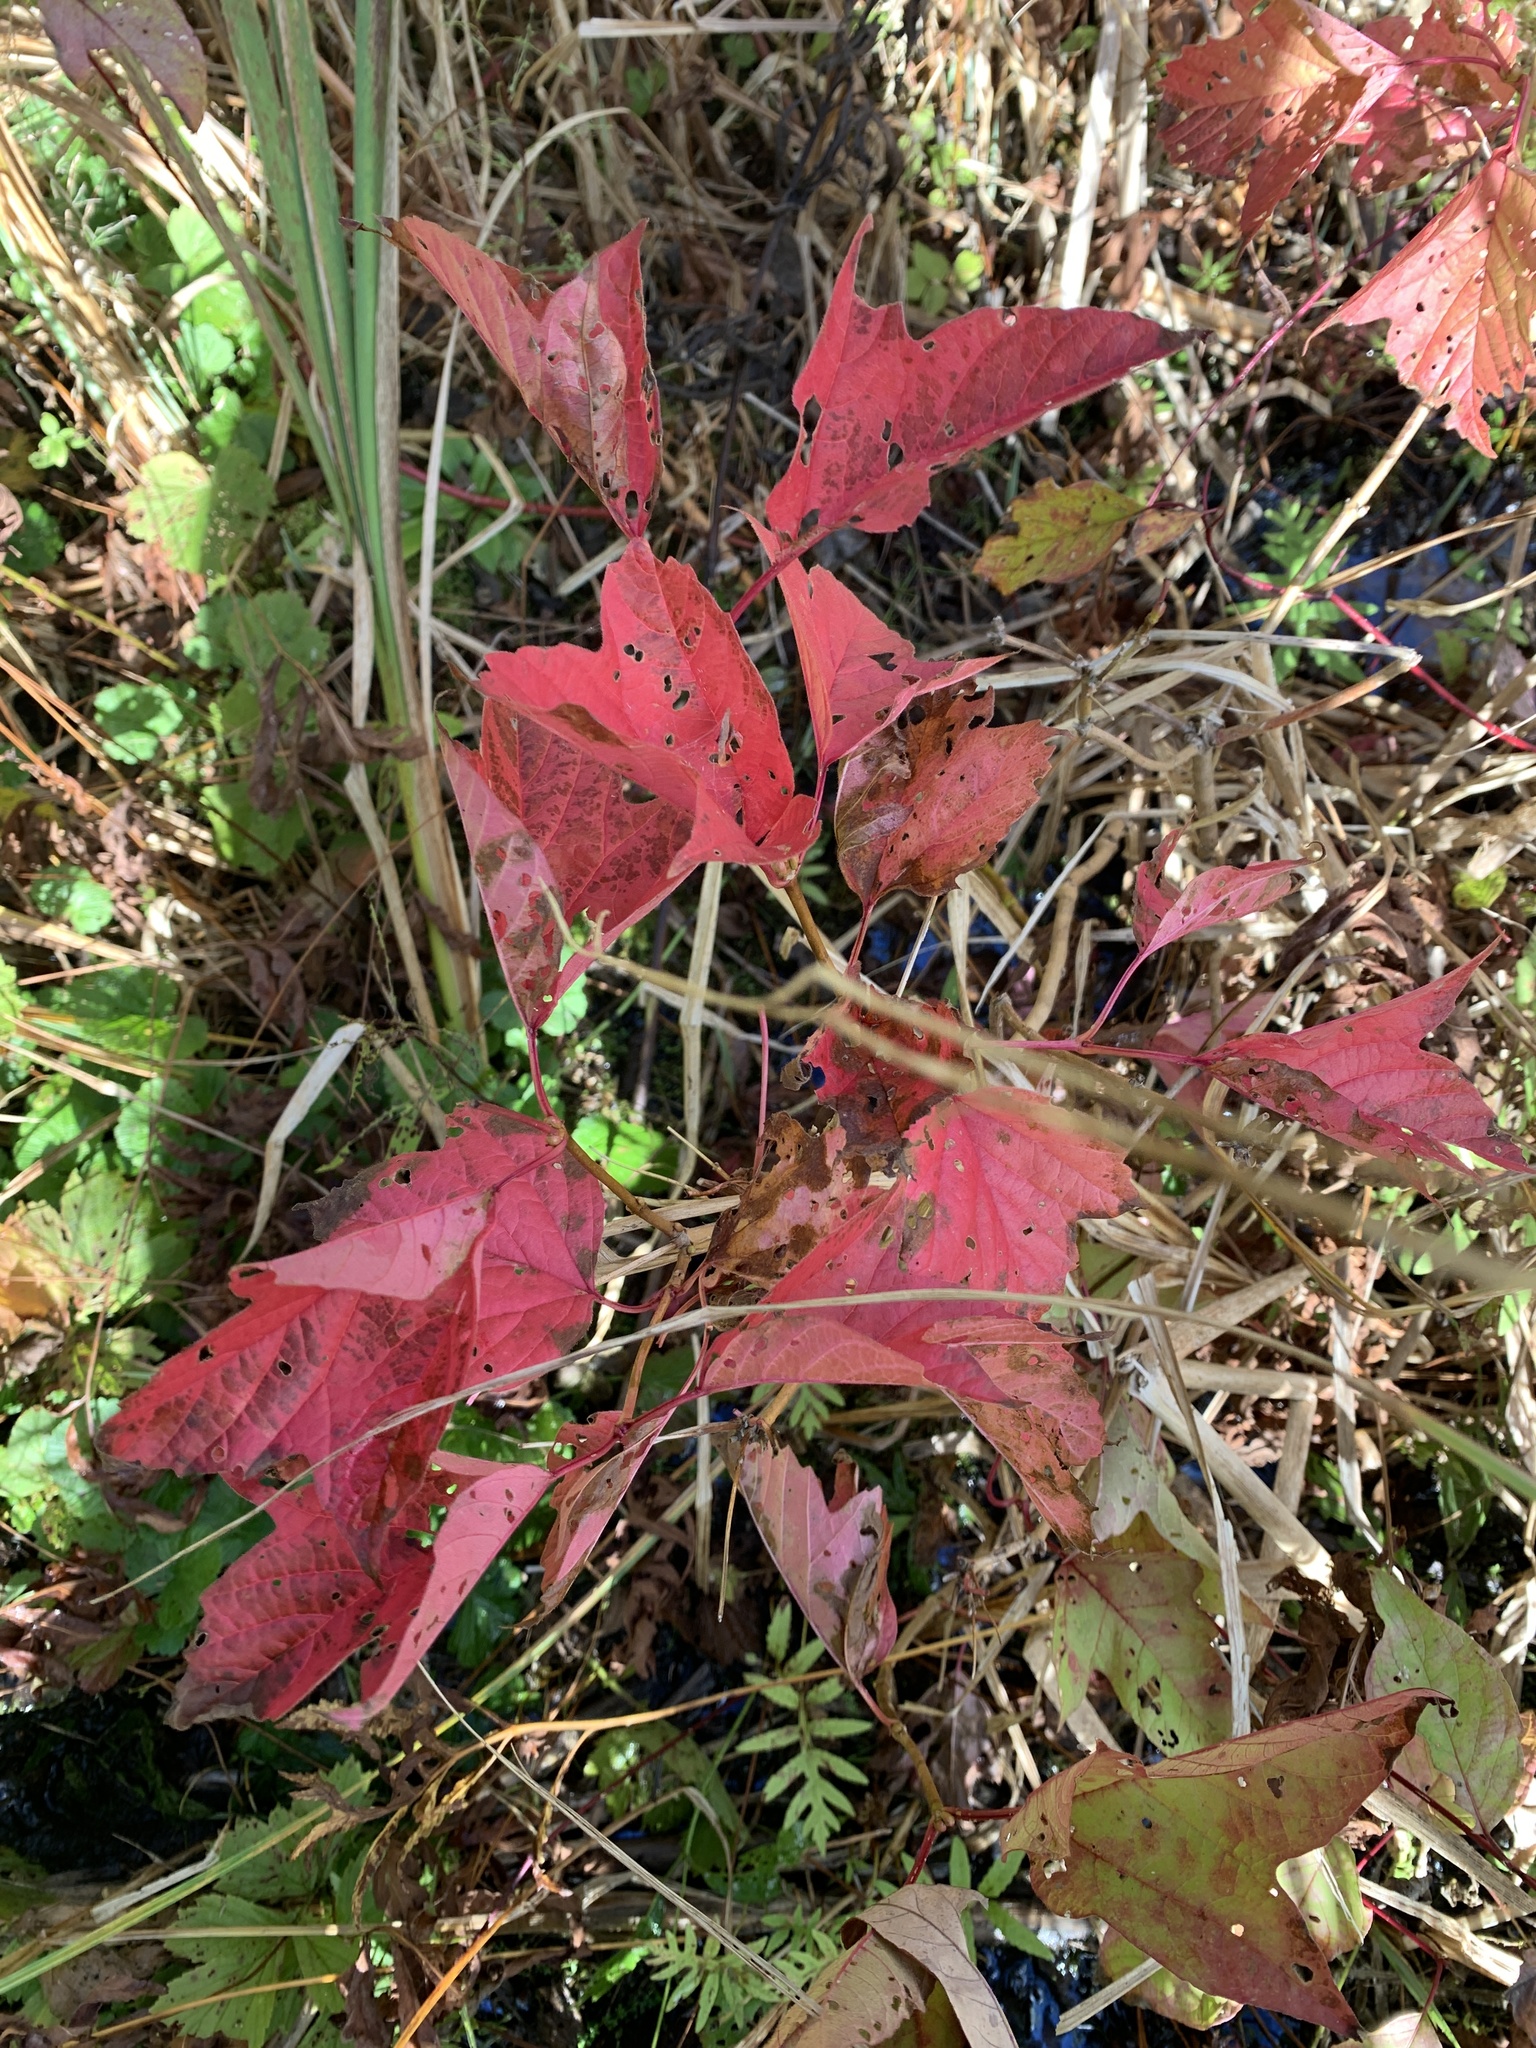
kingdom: Plantae
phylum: Tracheophyta
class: Magnoliopsida
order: Dipsacales
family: Viburnaceae
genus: Viburnum
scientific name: Viburnum opulus
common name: Guelder-rose
